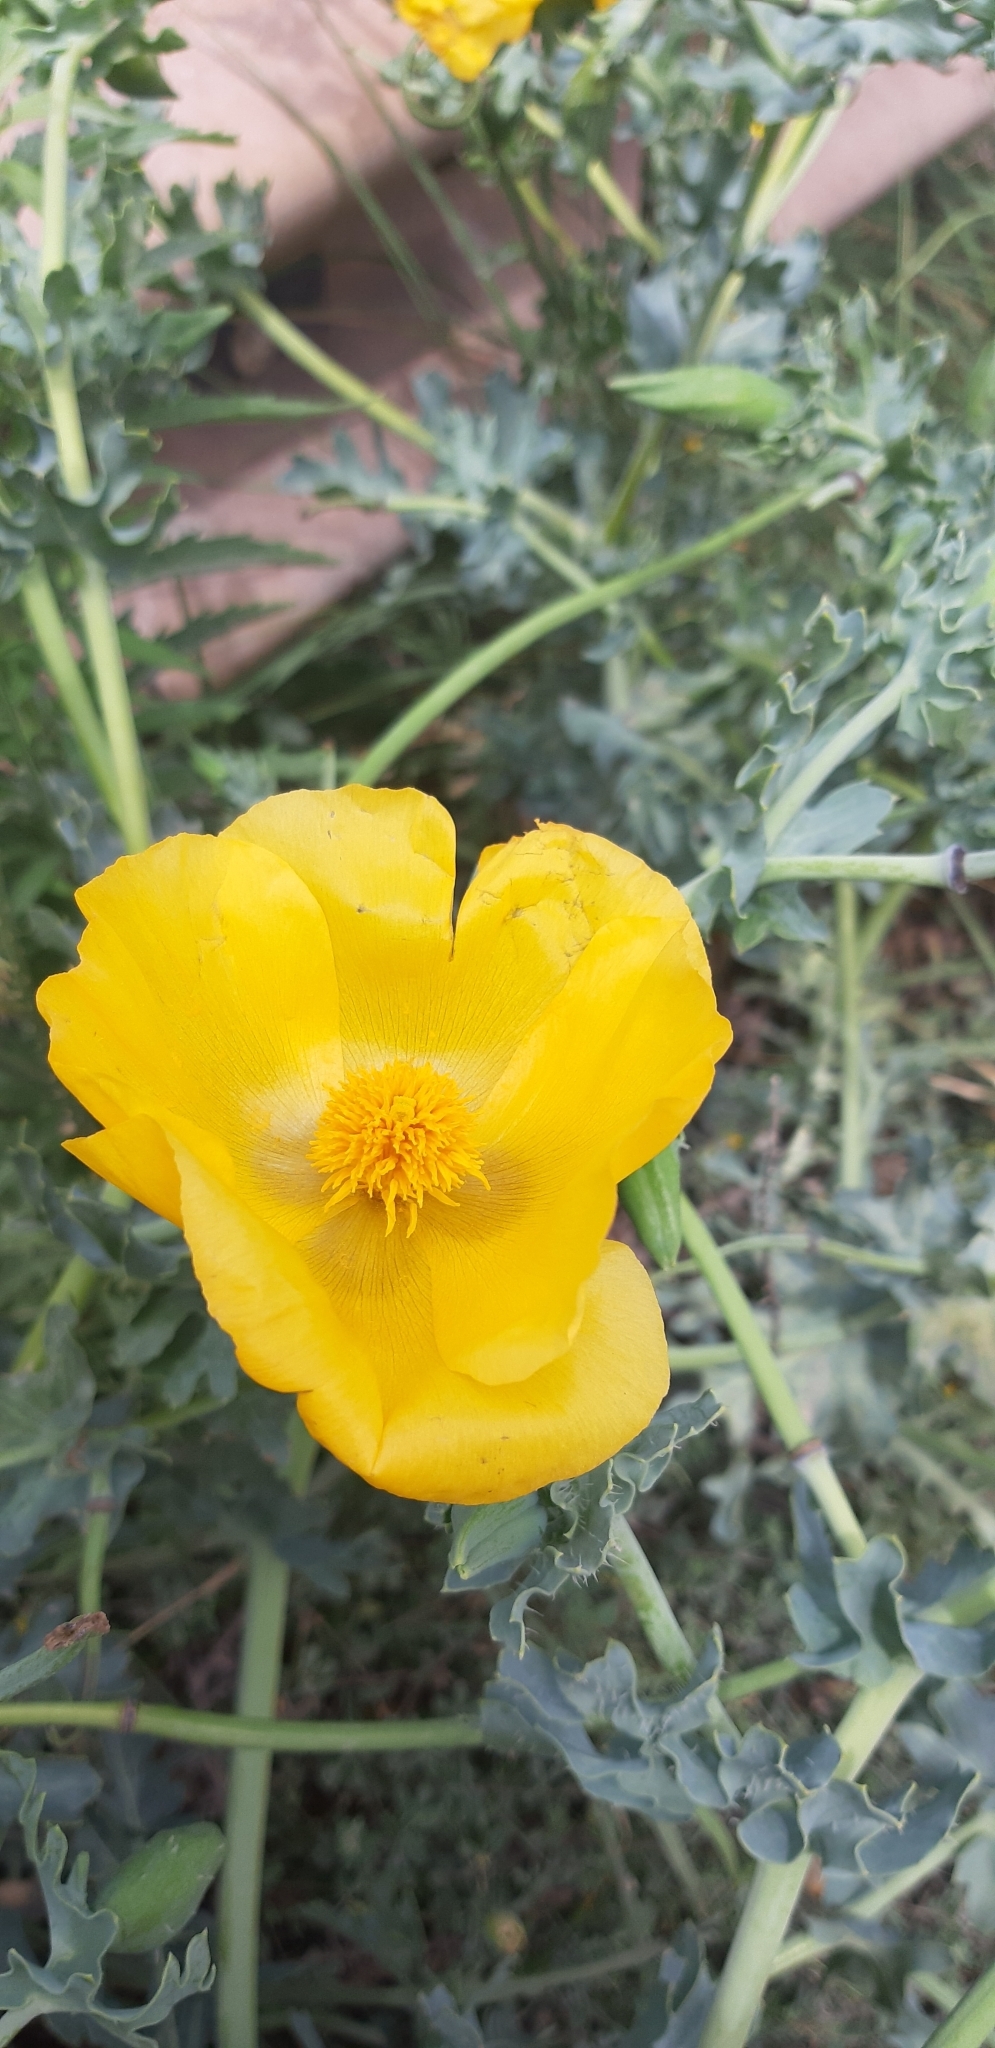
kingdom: Plantae
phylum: Tracheophyta
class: Magnoliopsida
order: Ranunculales
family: Papaveraceae
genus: Glaucium
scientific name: Glaucium flavum
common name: Yellow horned-poppy
